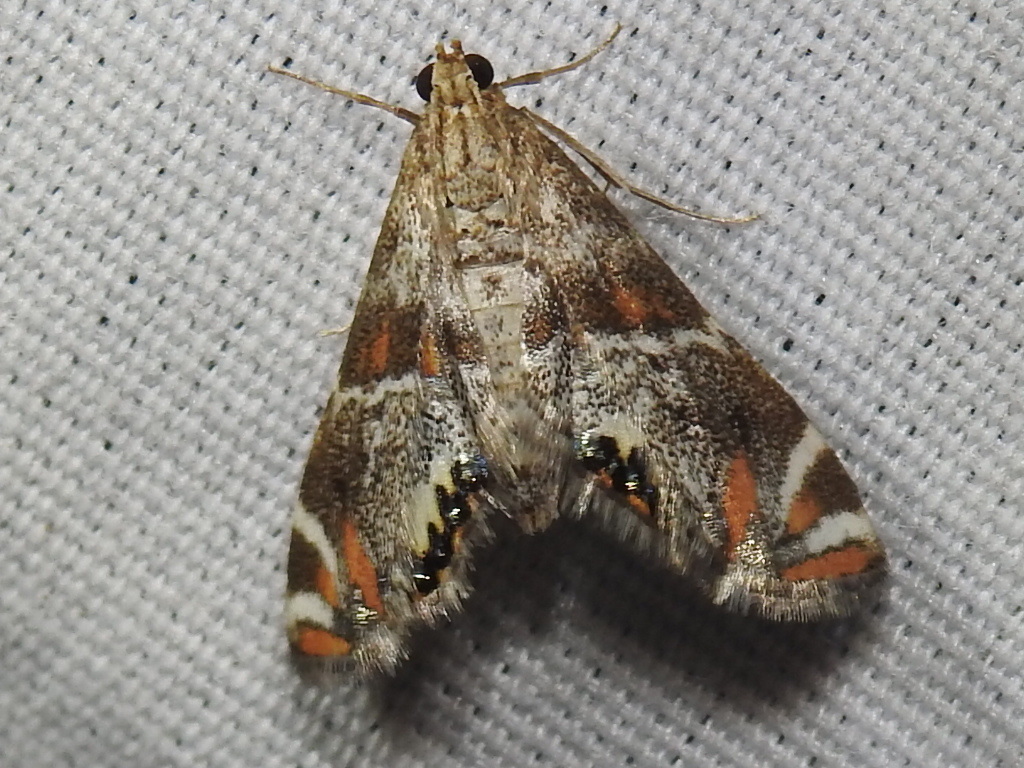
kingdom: Animalia
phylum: Arthropoda
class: Insecta
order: Lepidoptera
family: Crambidae
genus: Petrophila
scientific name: Petrophila jaliscalis
